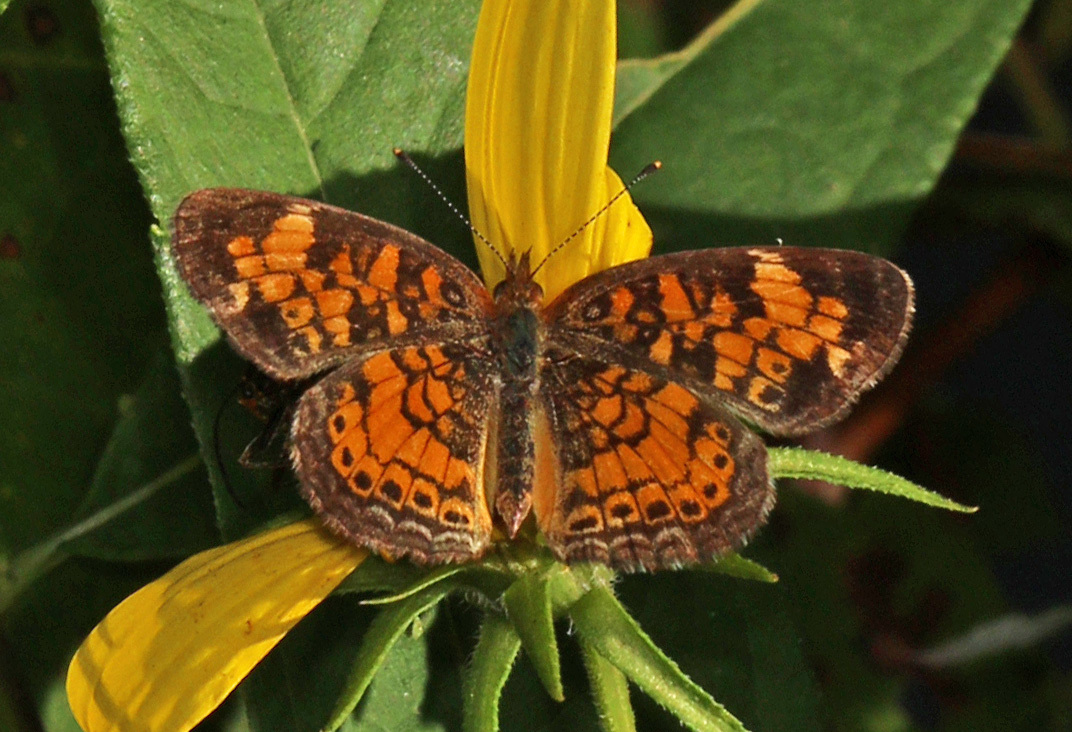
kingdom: Animalia
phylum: Arthropoda
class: Insecta
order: Lepidoptera
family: Nymphalidae
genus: Phyciodes
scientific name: Phyciodes tharos
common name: Pearl crescent
